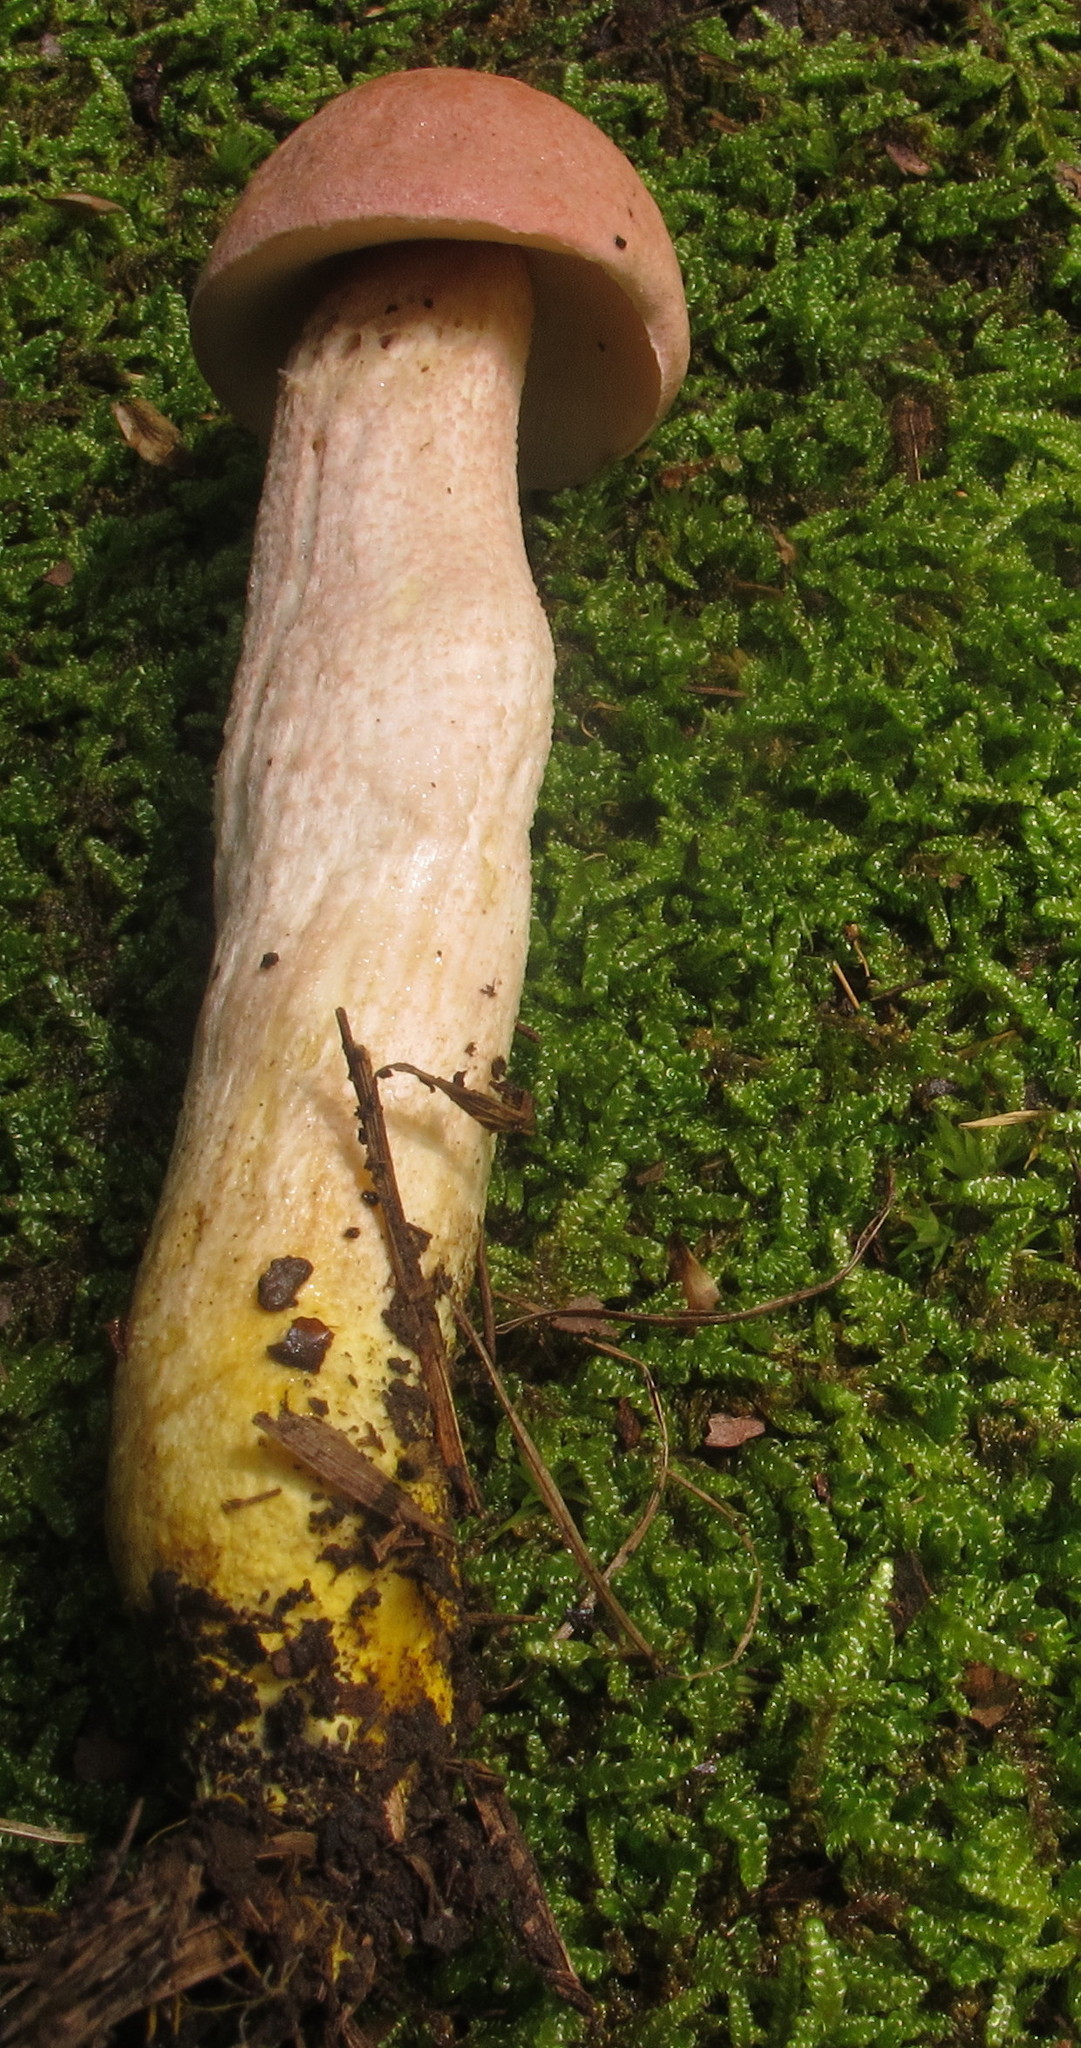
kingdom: Fungi
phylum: Basidiomycota
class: Agaricomycetes
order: Boletales
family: Boletaceae
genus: Harrya
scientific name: Harrya chromipes
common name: Chrome-footed bolete
